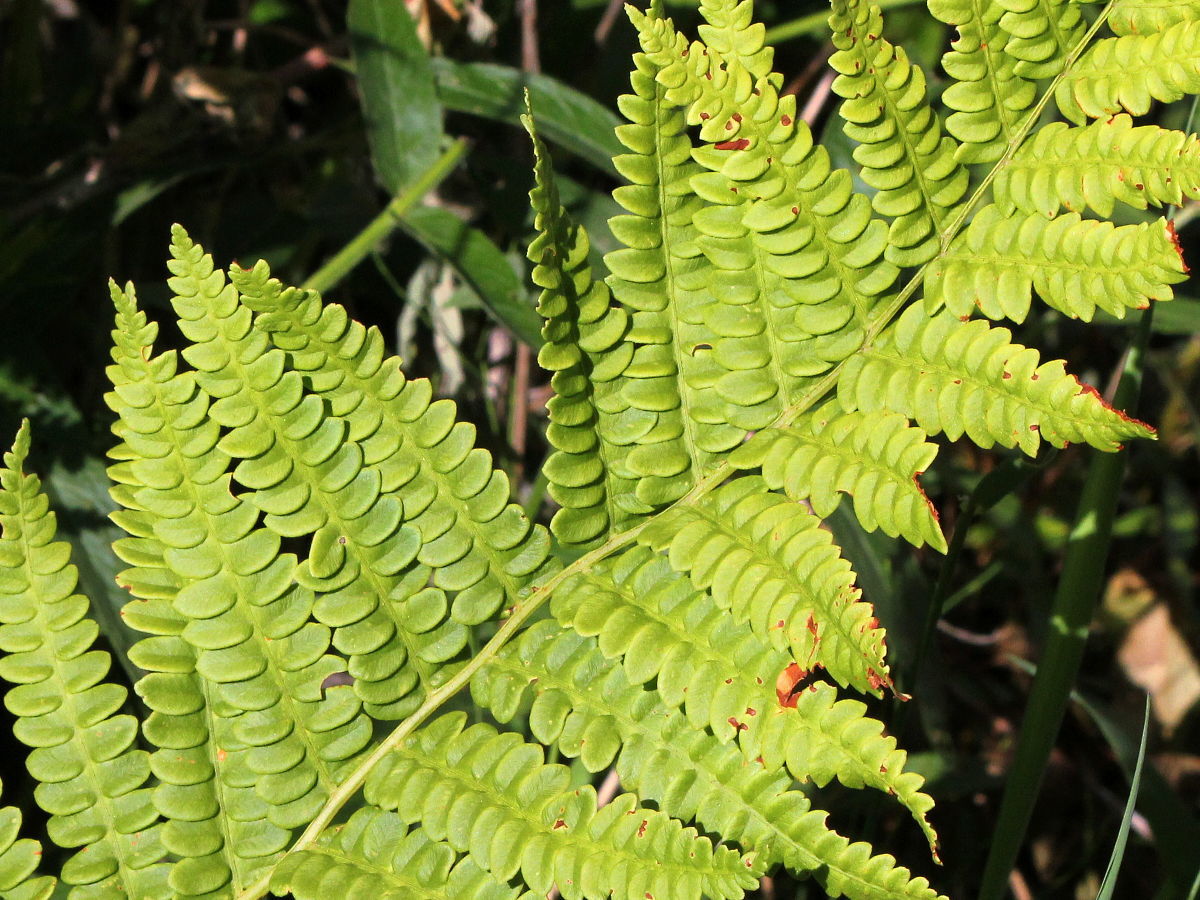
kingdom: Plantae
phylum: Tracheophyta
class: Polypodiopsida
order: Osmundales
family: Osmundaceae
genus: Osmundastrum
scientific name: Osmundastrum cinnamomeum
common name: Cinnamon fern
